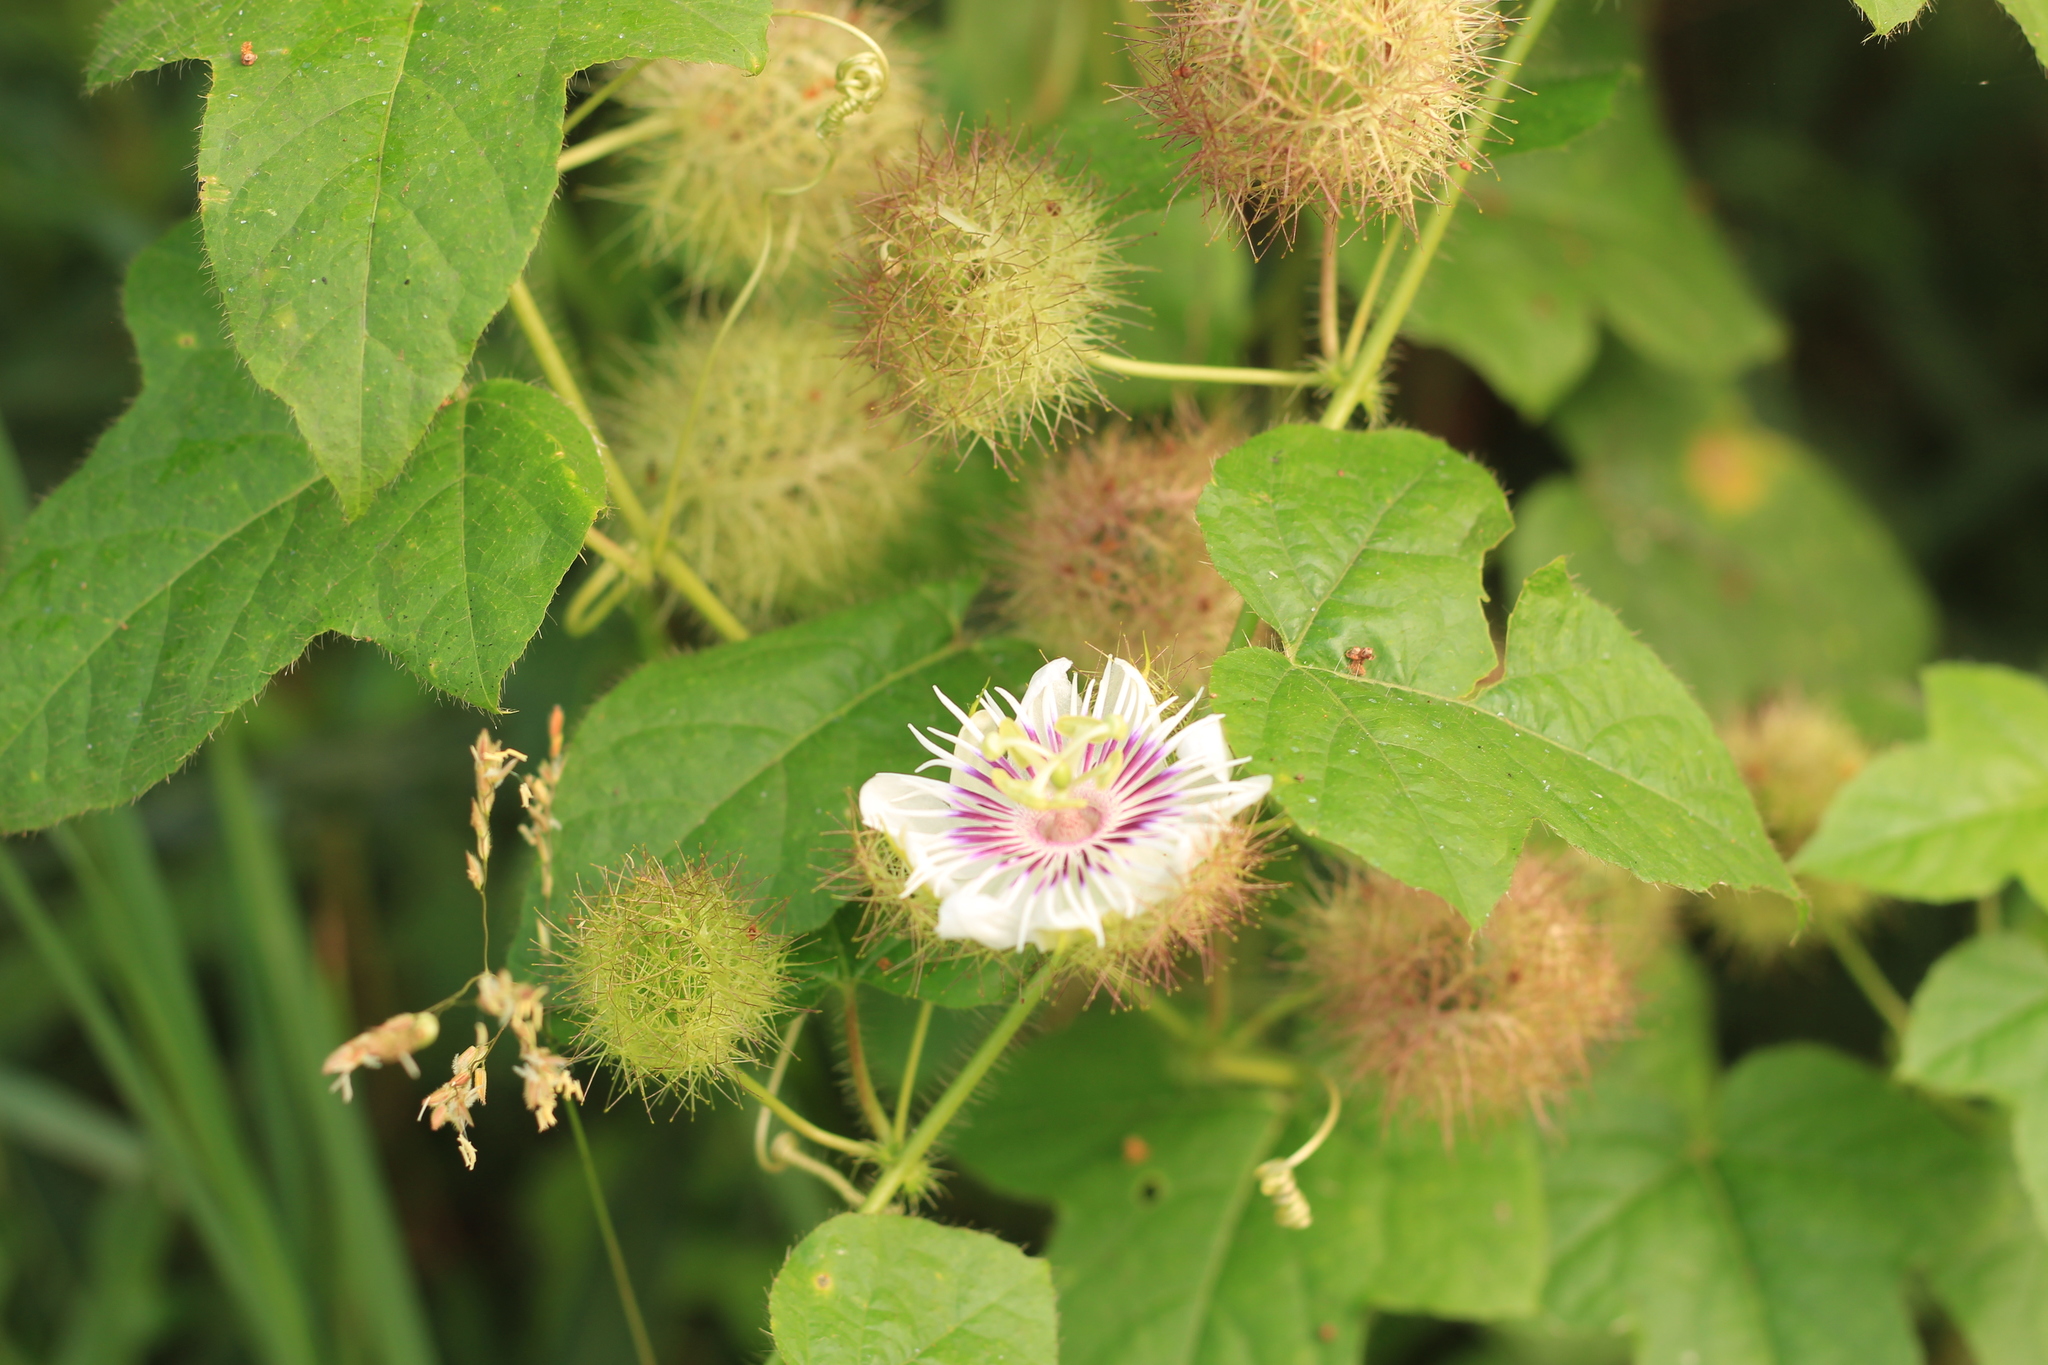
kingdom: Plantae
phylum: Tracheophyta
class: Magnoliopsida
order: Malpighiales
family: Passifloraceae
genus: Passiflora
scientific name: Passiflora foetida
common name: Fetid passionflower
